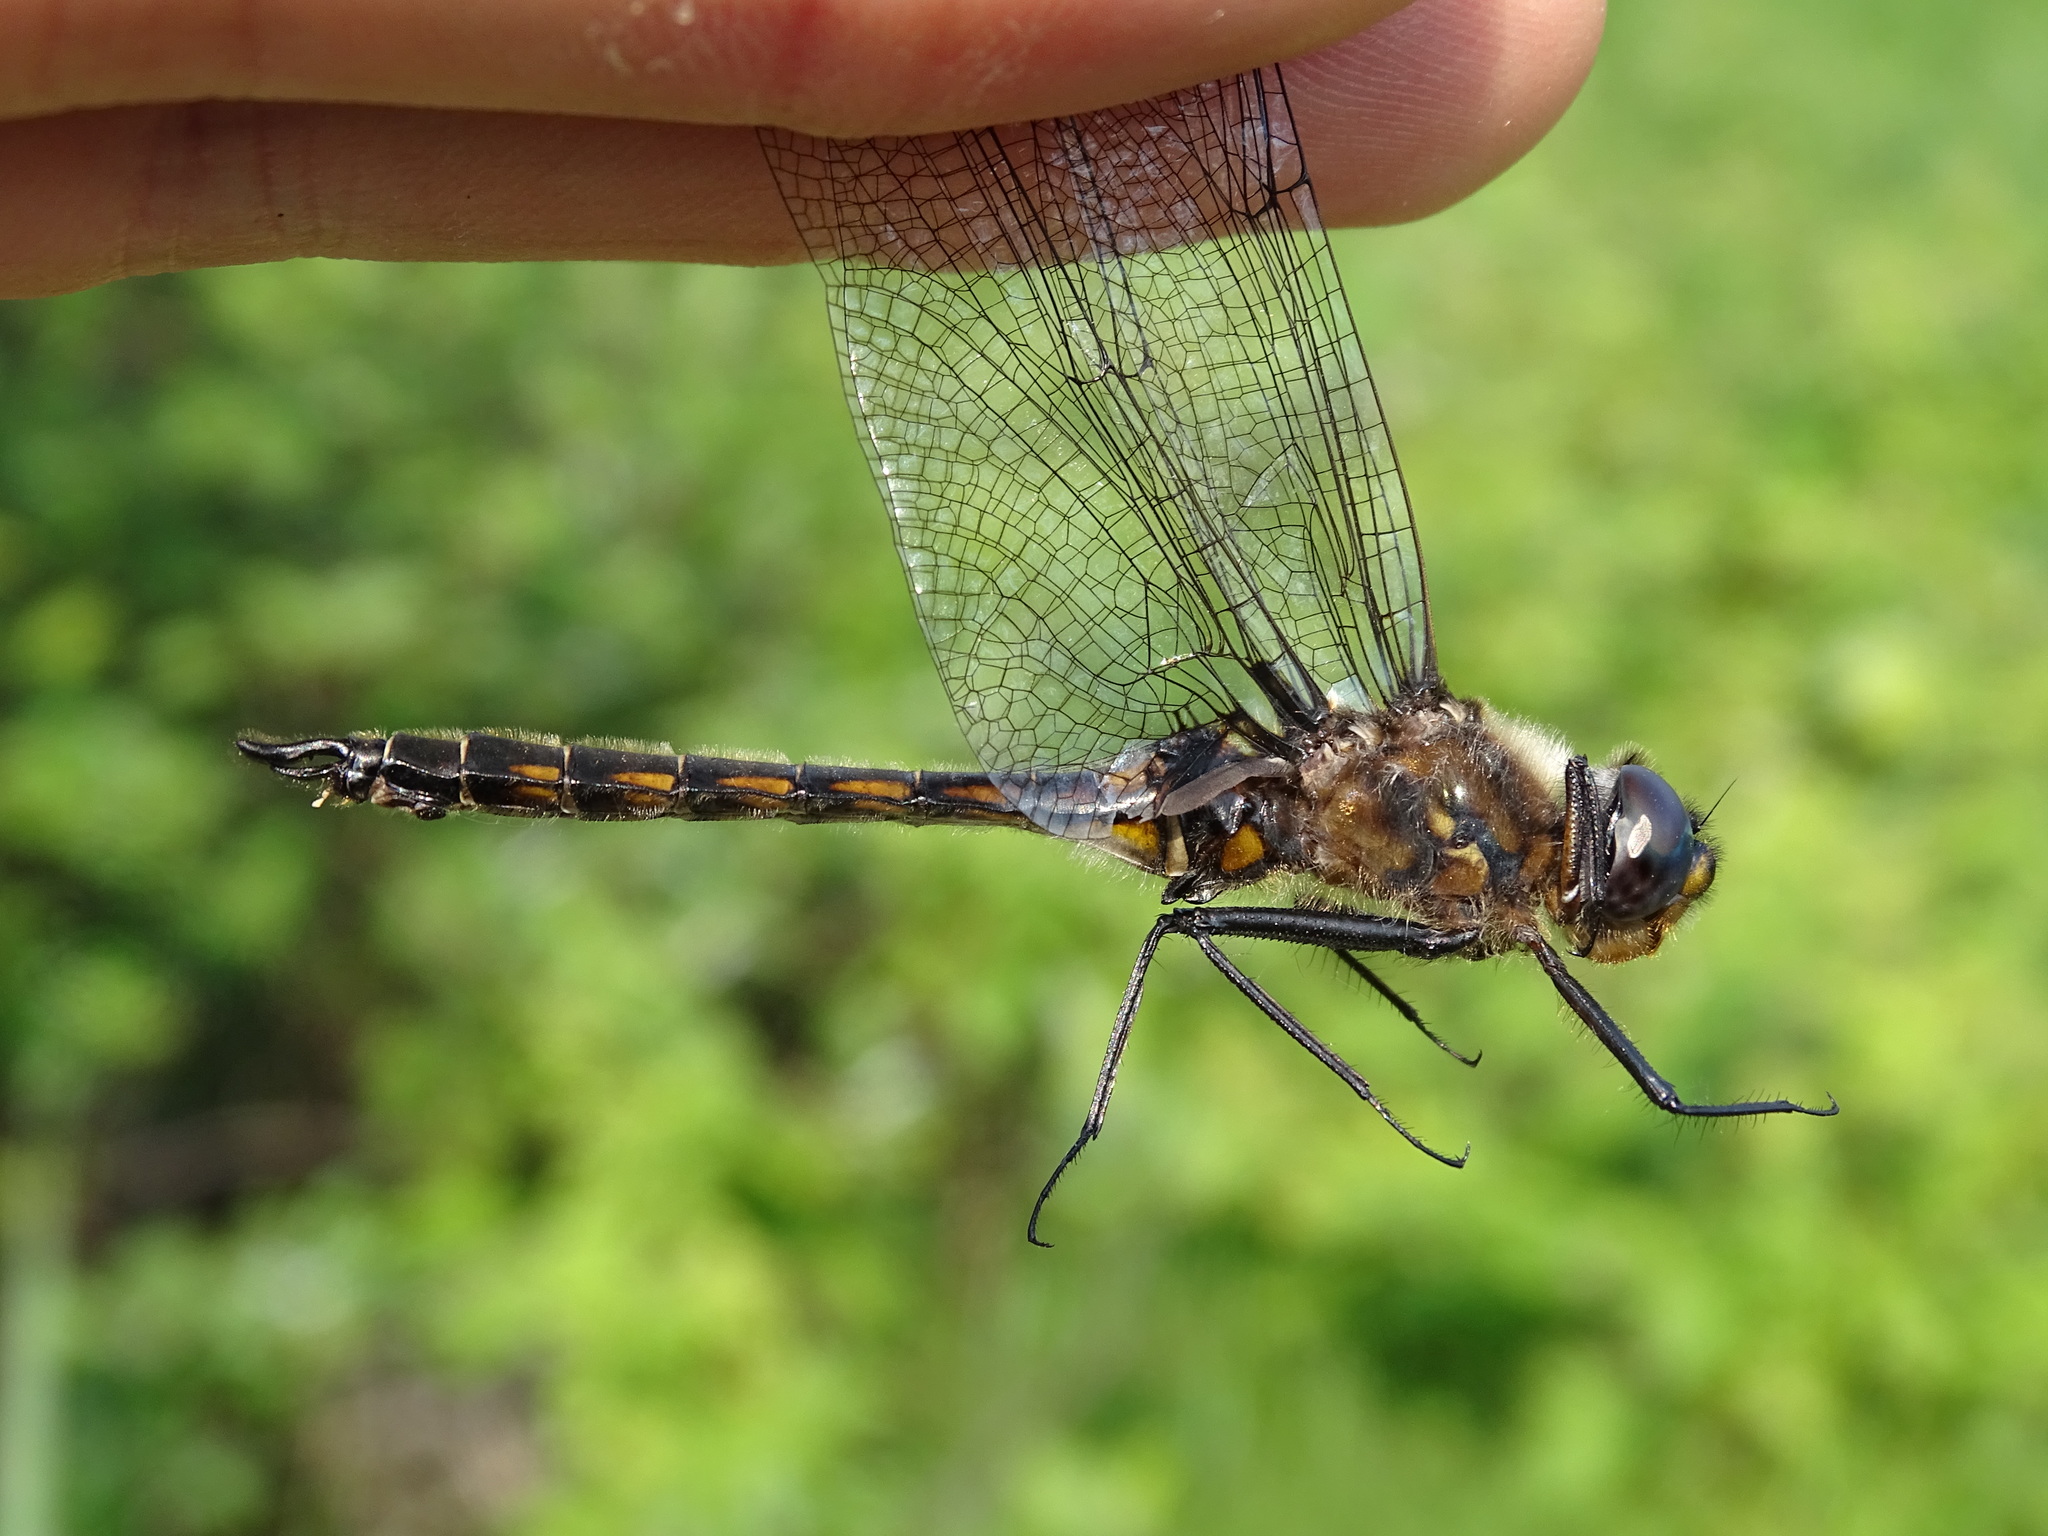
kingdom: Animalia
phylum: Arthropoda
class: Insecta
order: Odonata
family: Corduliidae
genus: Epitheca
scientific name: Epitheca spinigera
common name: Spiny baskettail
